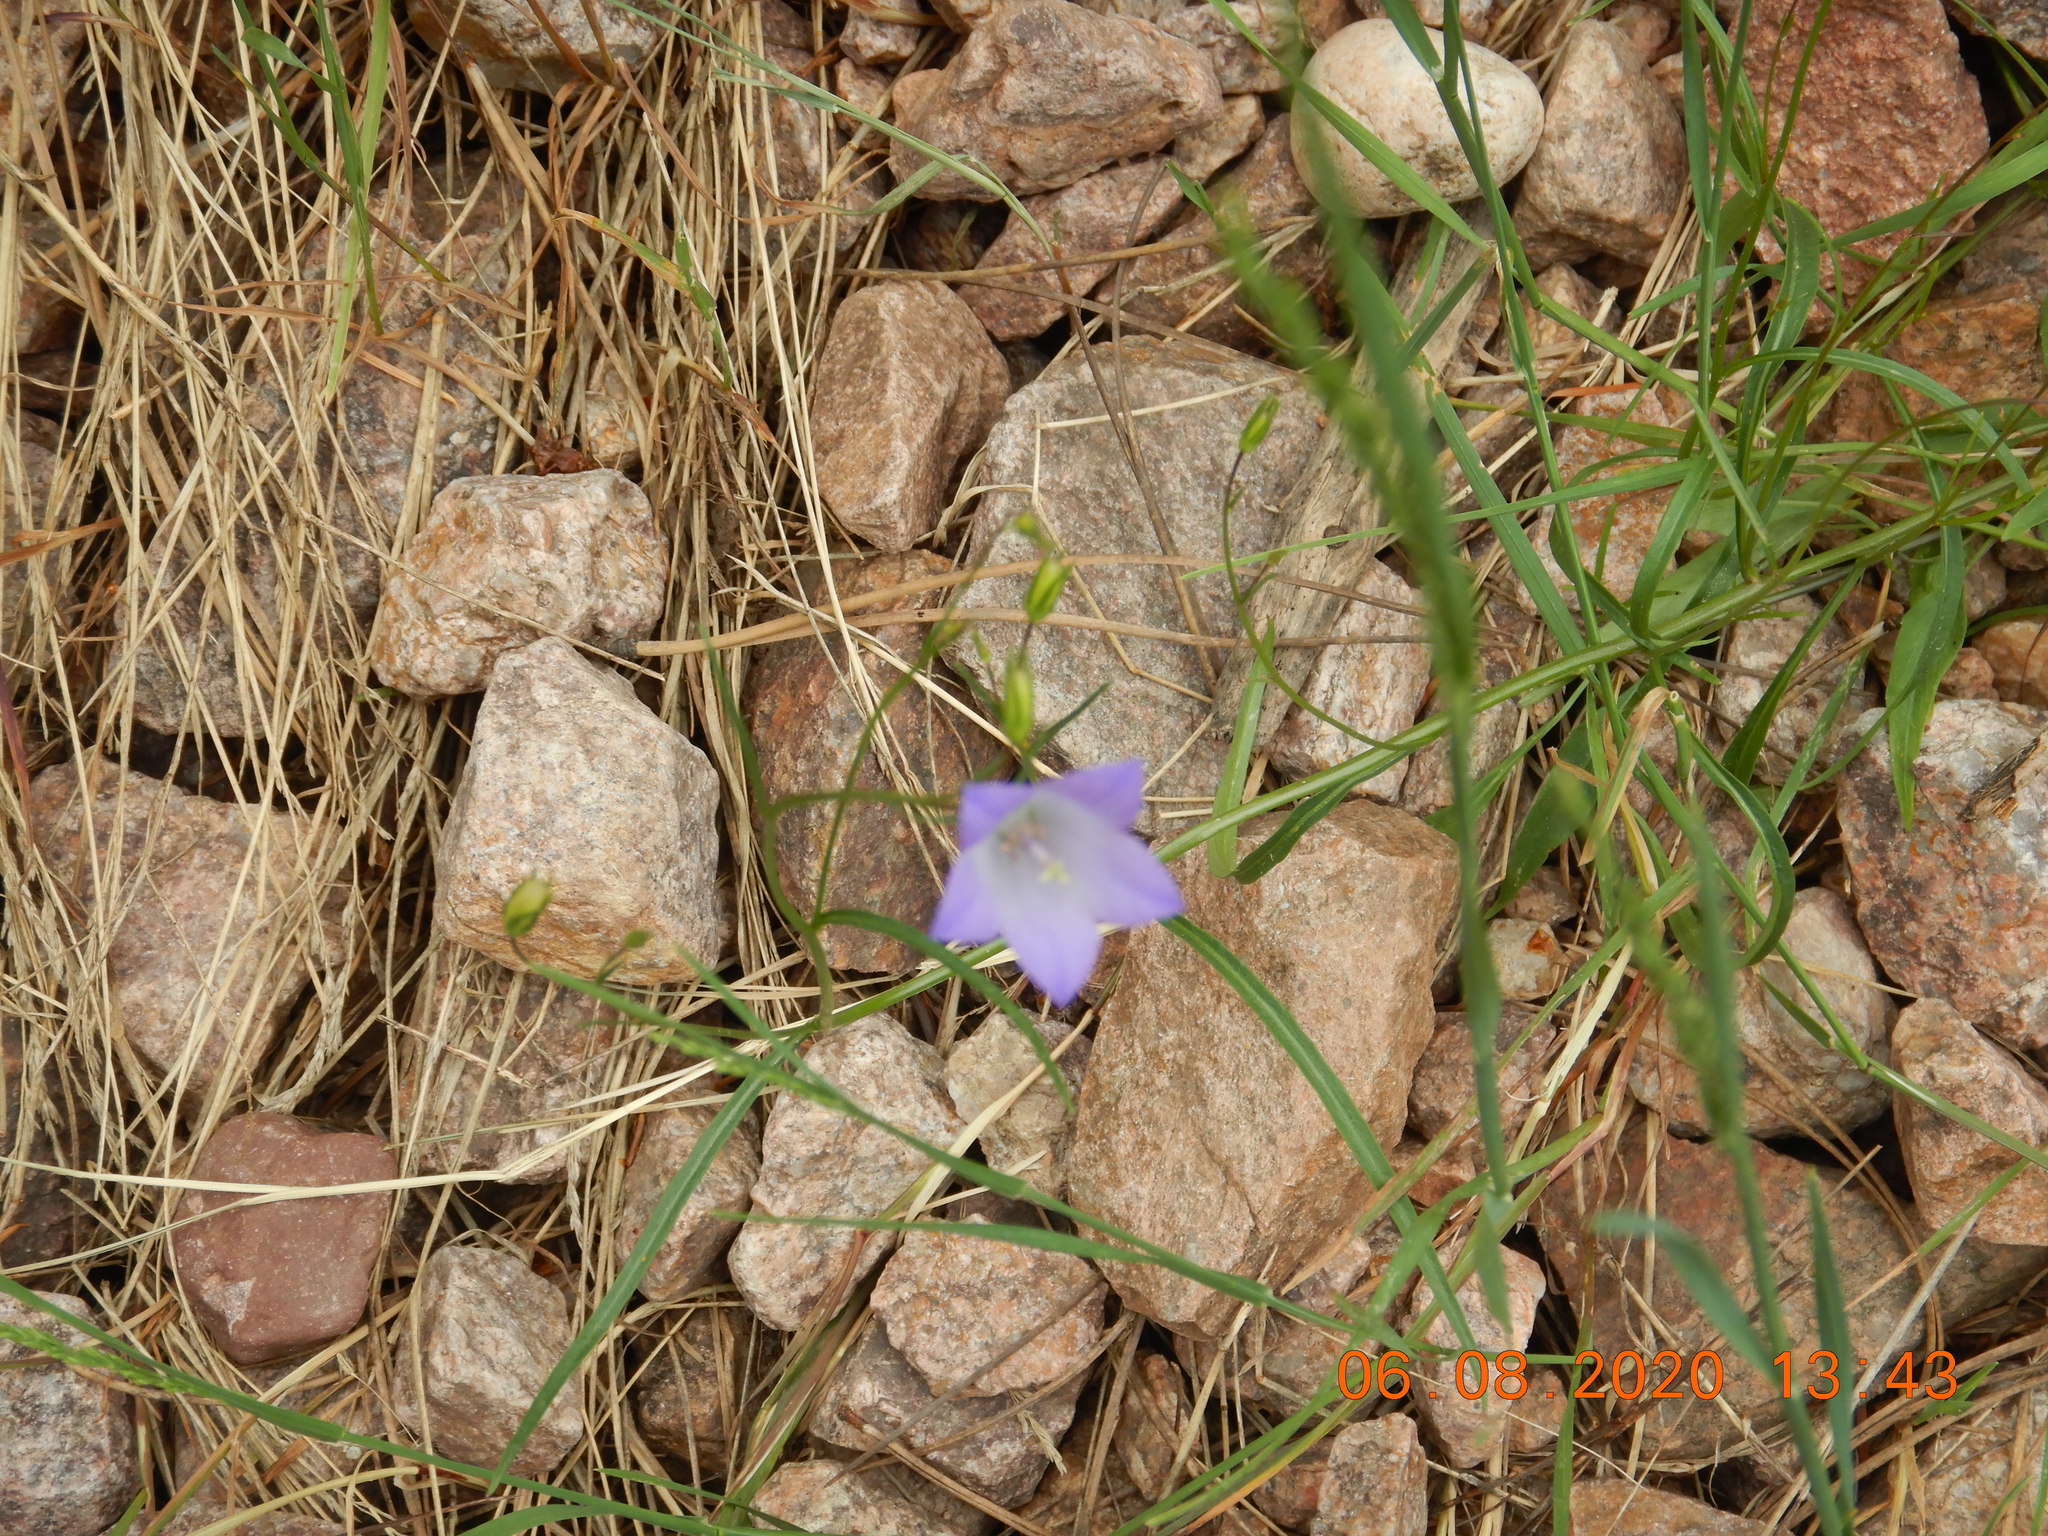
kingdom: Plantae
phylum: Tracheophyta
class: Magnoliopsida
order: Asterales
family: Campanulaceae
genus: Campanula
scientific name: Campanula petiolata
